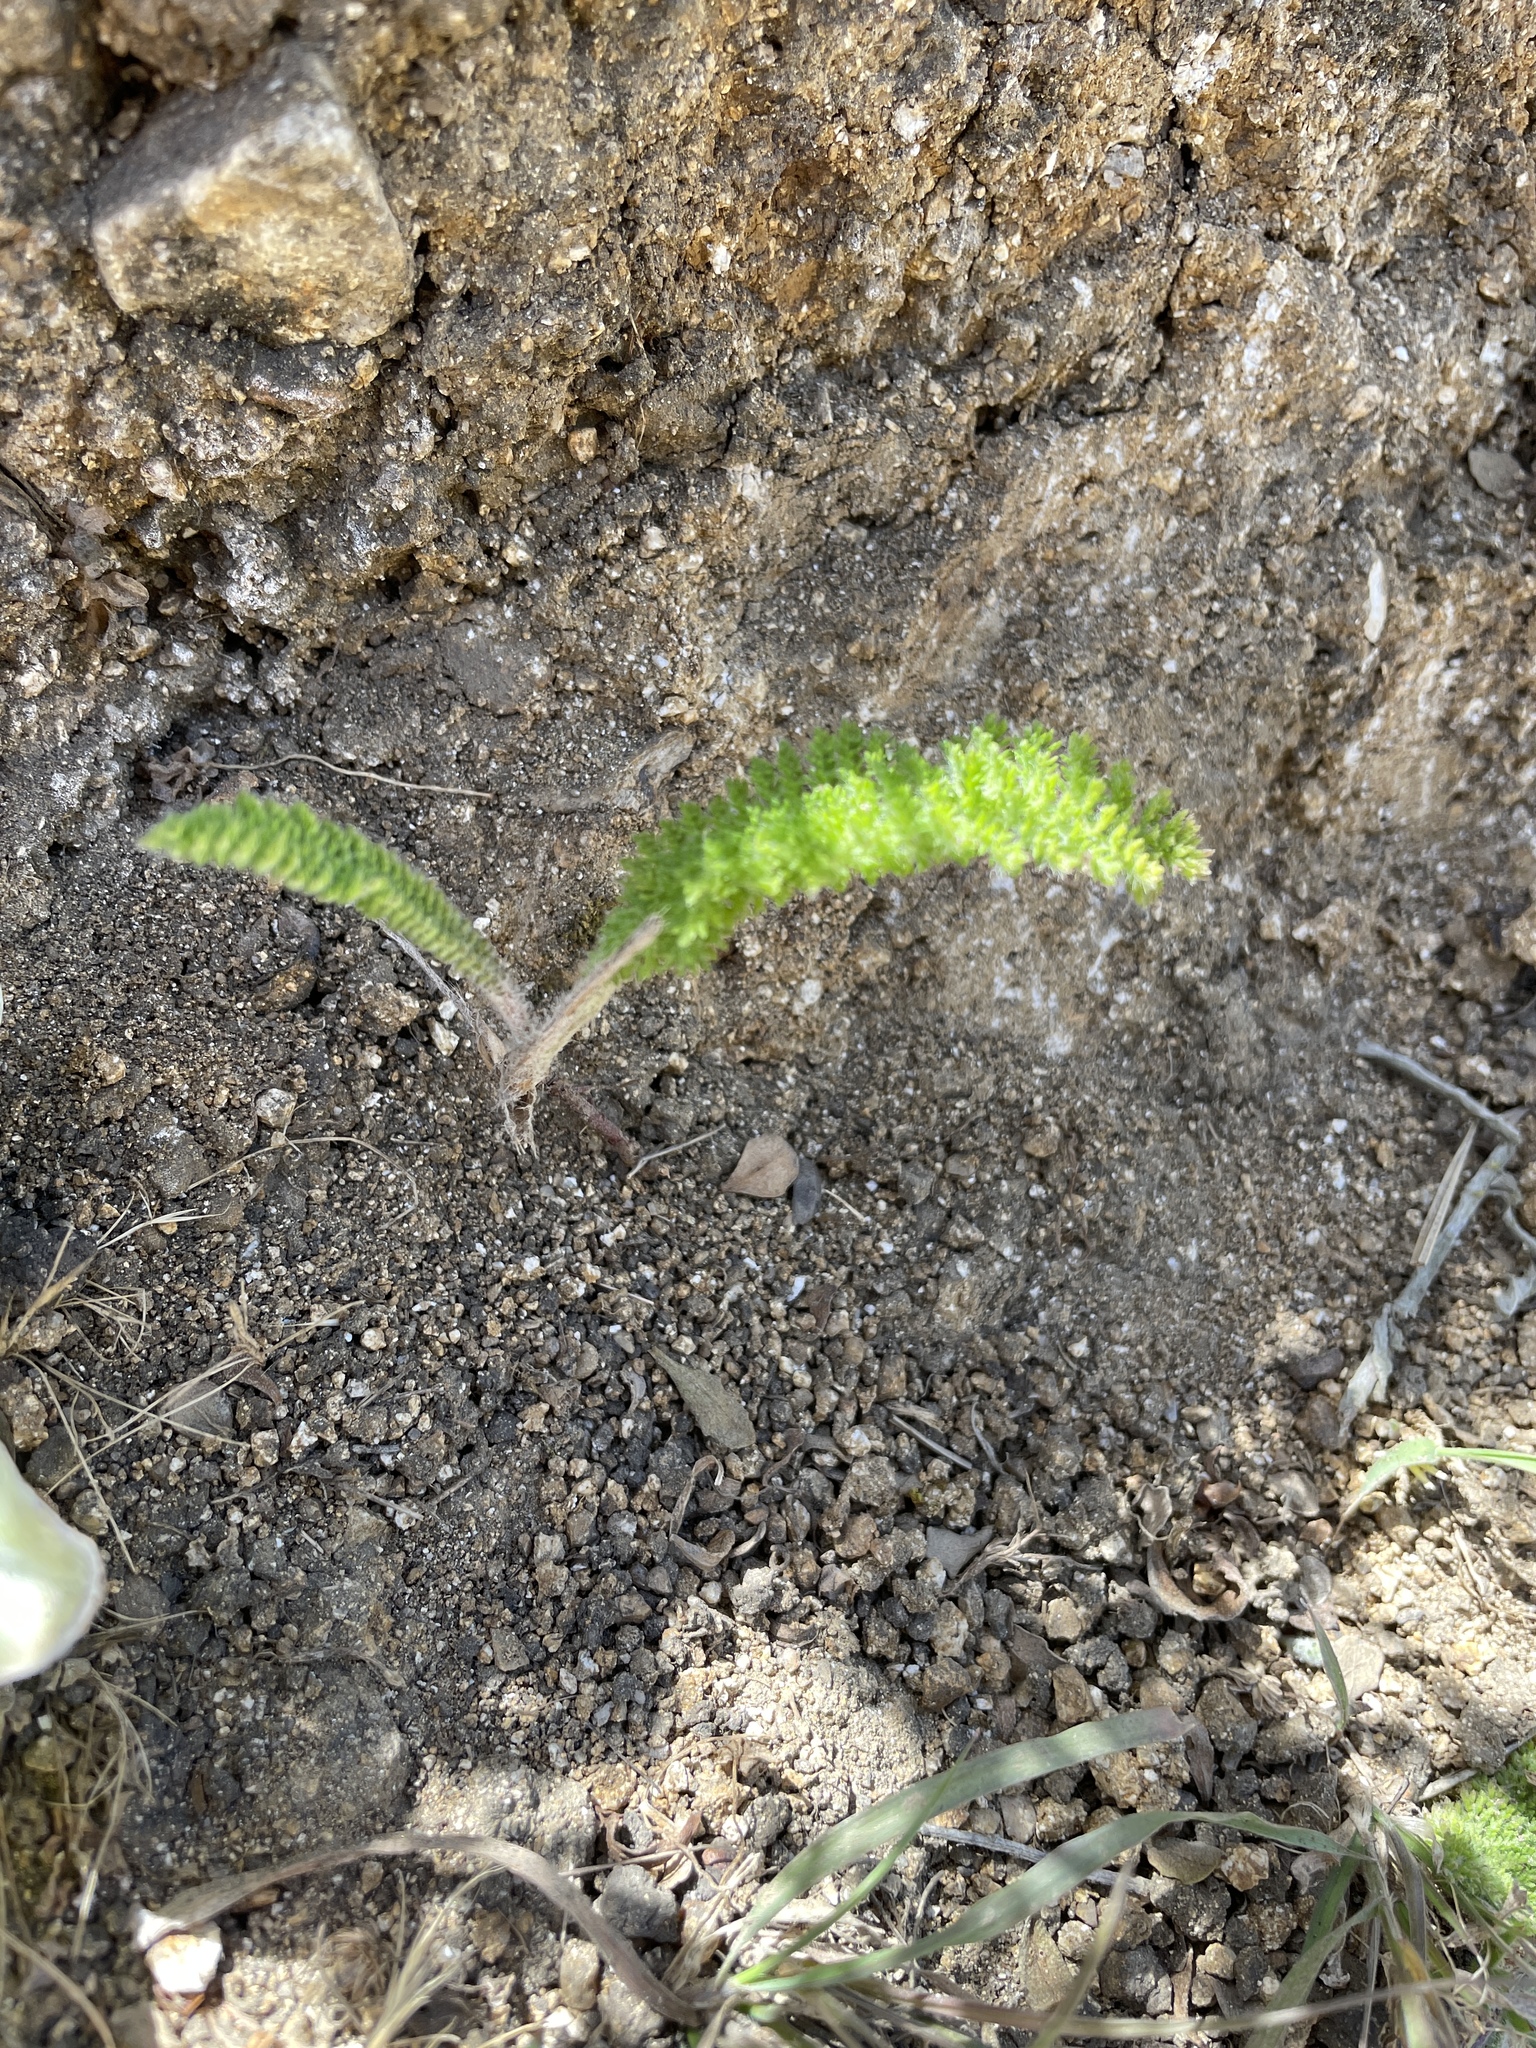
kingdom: Plantae
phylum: Tracheophyta
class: Magnoliopsida
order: Asterales
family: Asteraceae
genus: Achillea
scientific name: Achillea millefolium
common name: Yarrow
